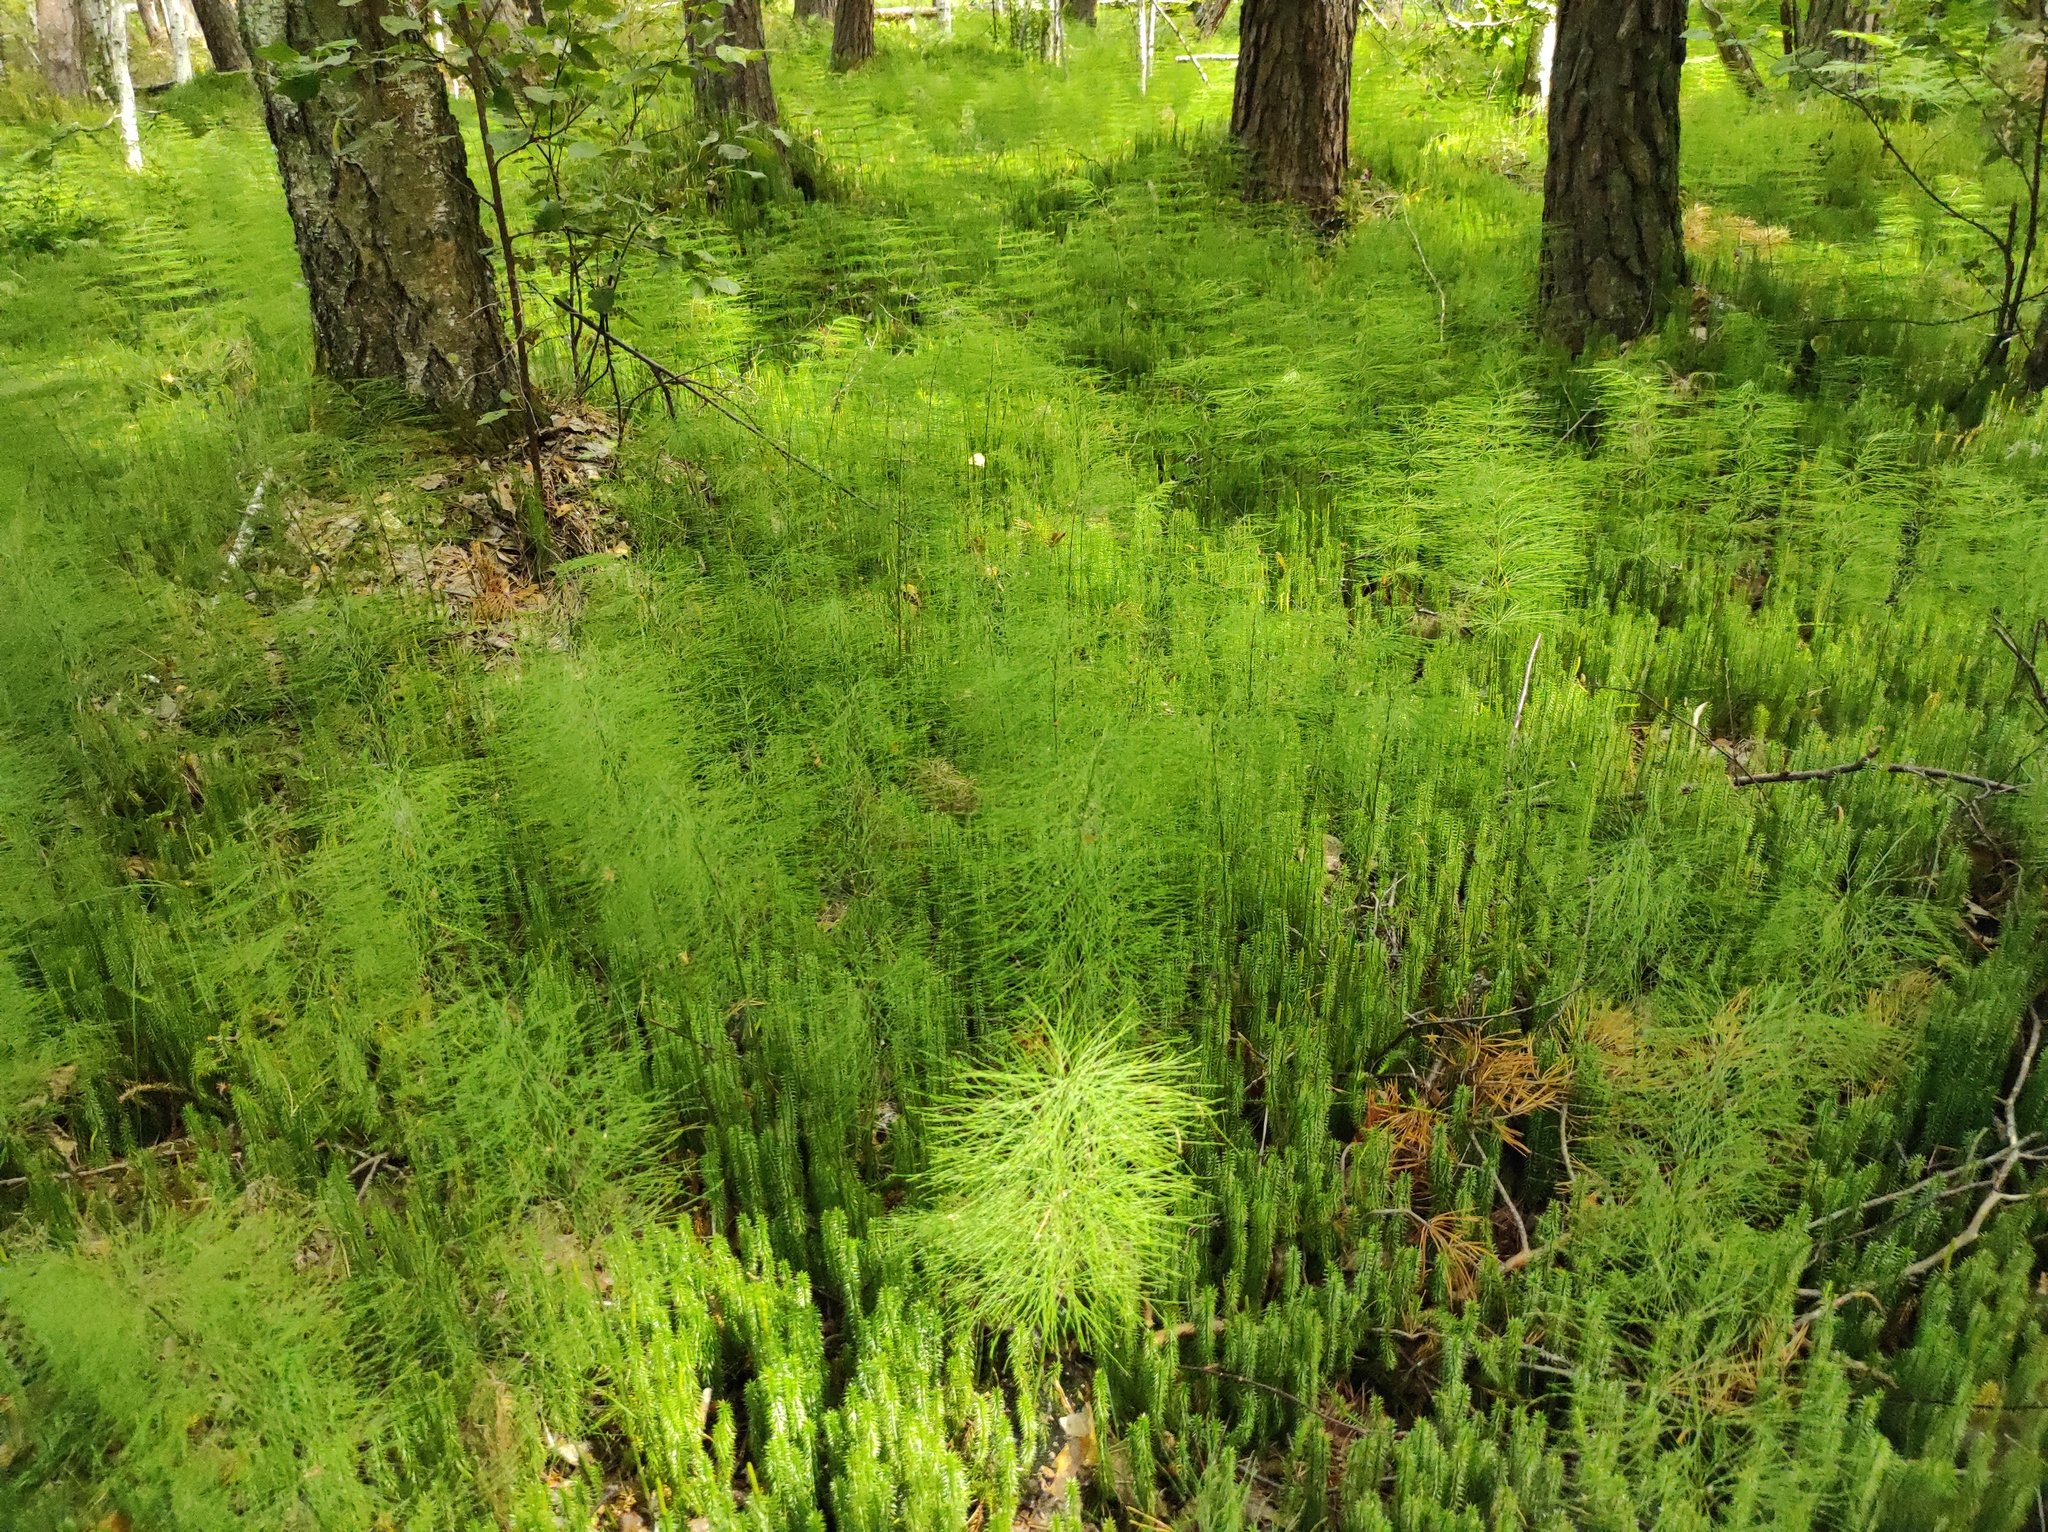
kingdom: Plantae
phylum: Tracheophyta
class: Polypodiopsida
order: Equisetales
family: Equisetaceae
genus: Equisetum
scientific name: Equisetum sylvaticum
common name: Wood horsetail
